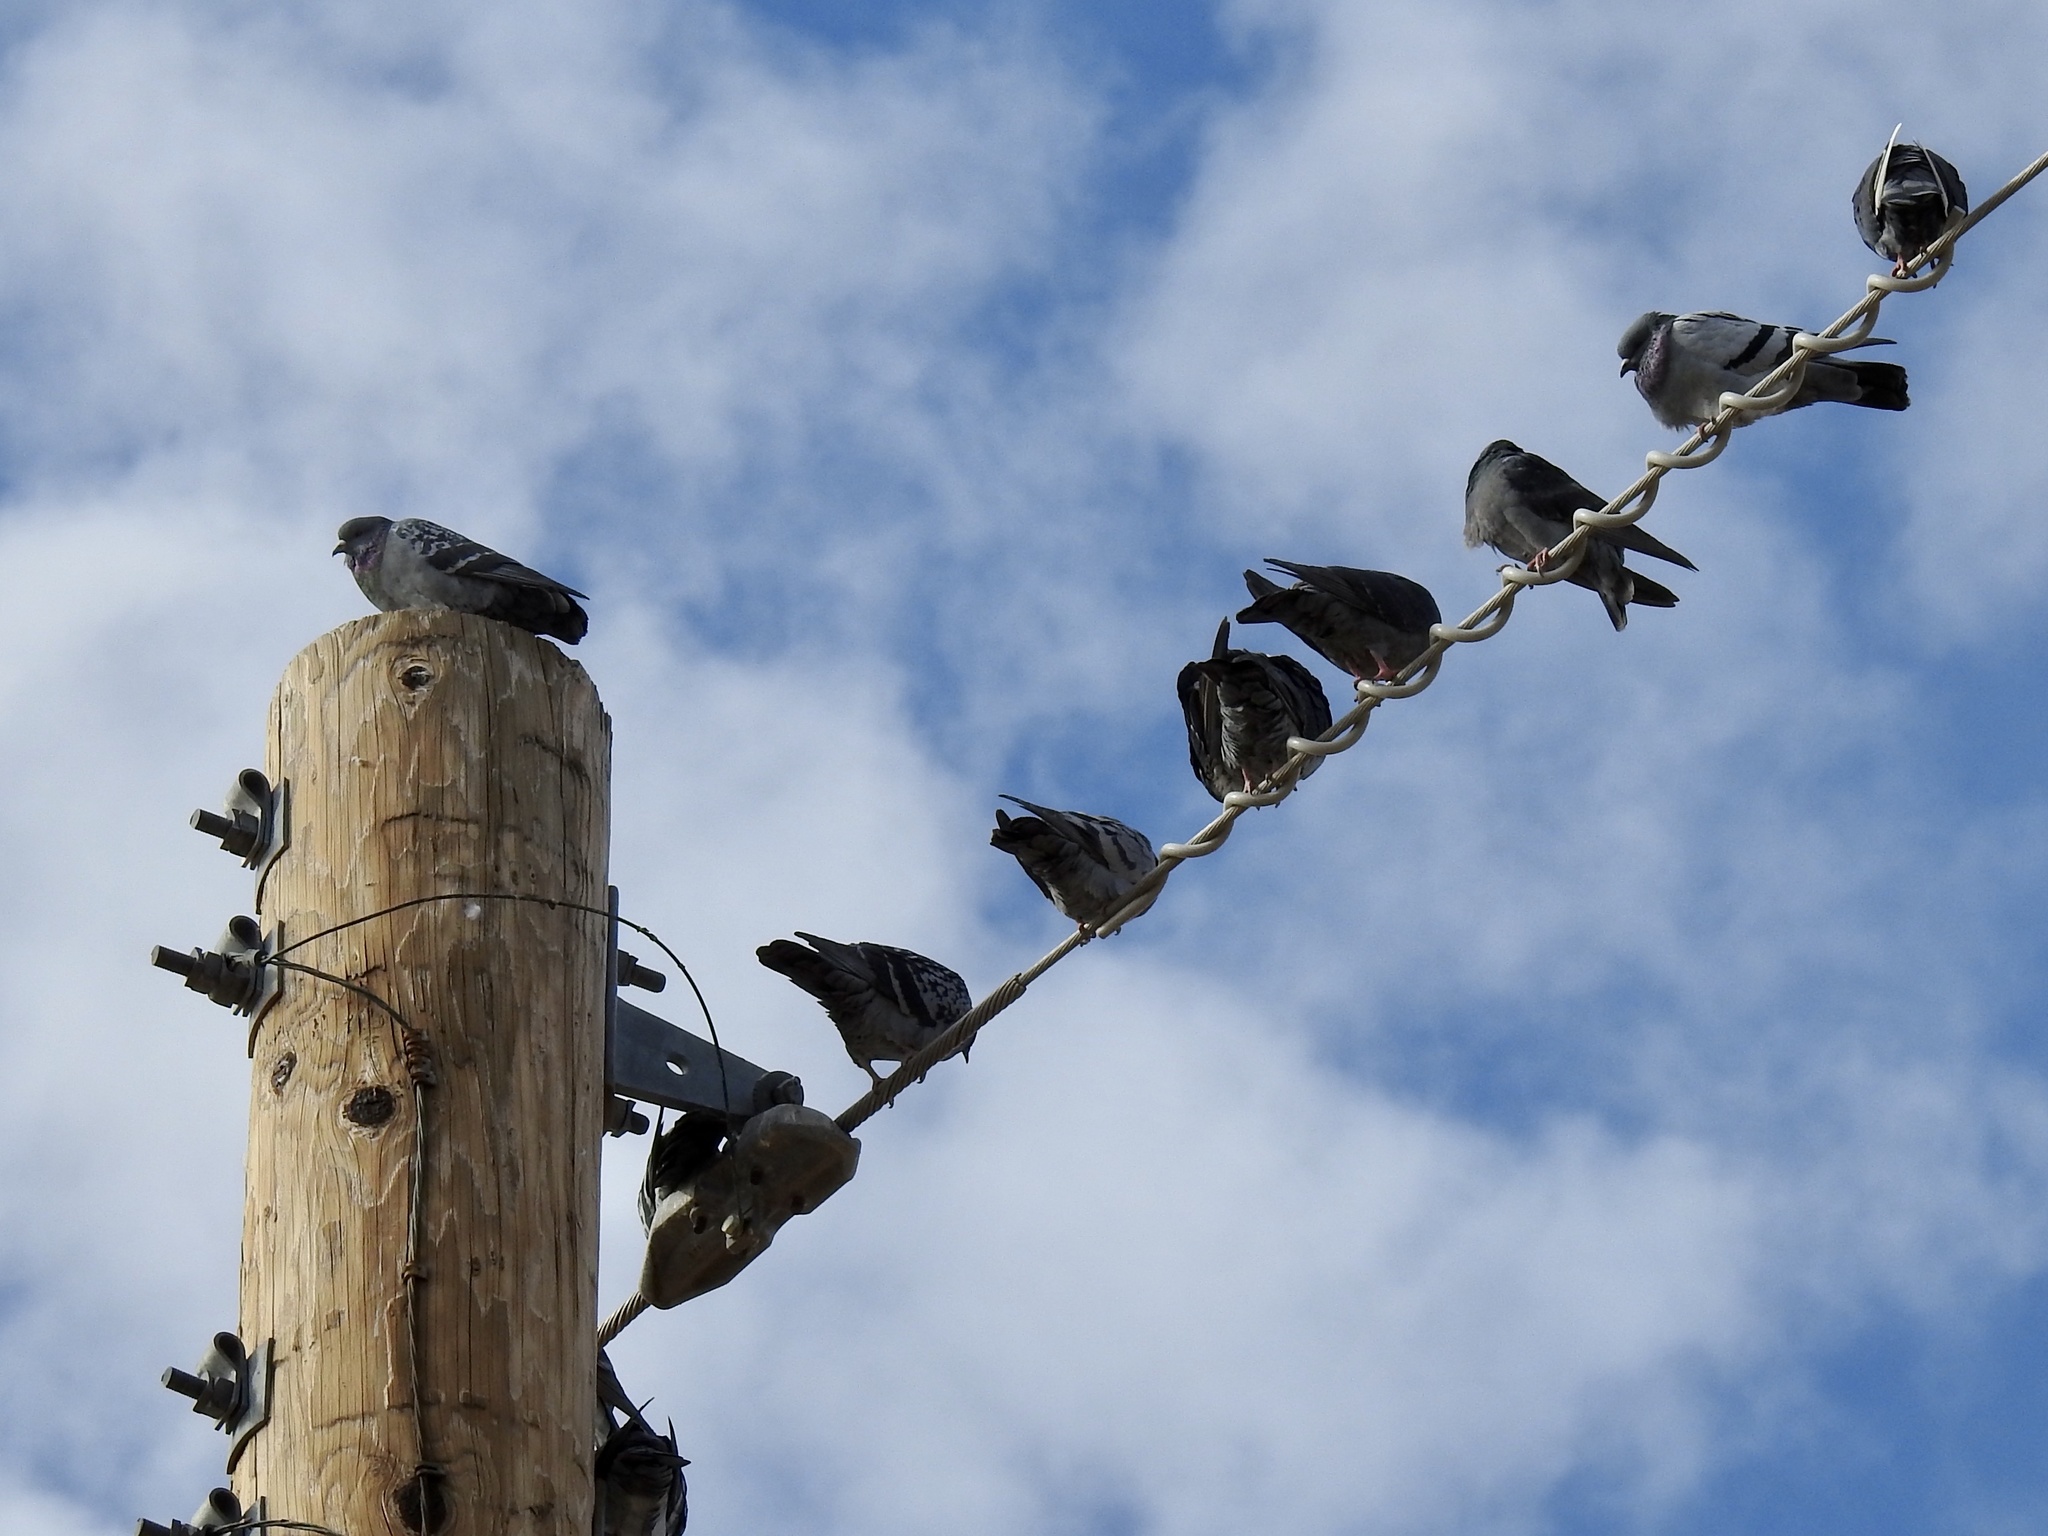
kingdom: Animalia
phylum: Chordata
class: Aves
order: Columbiformes
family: Columbidae
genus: Columba
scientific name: Columba livia
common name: Rock pigeon
